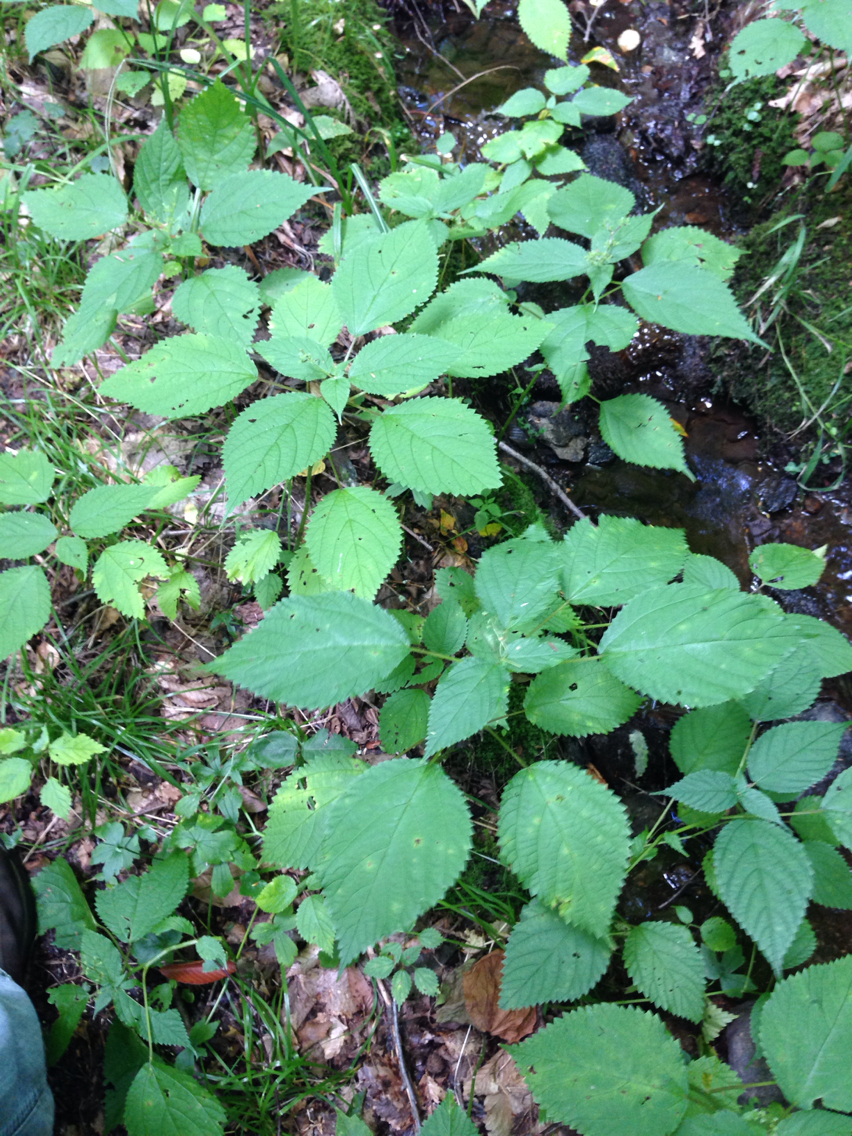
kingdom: Plantae
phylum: Tracheophyta
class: Magnoliopsida
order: Rosales
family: Urticaceae
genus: Laportea
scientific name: Laportea canadensis
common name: Canada nettle
